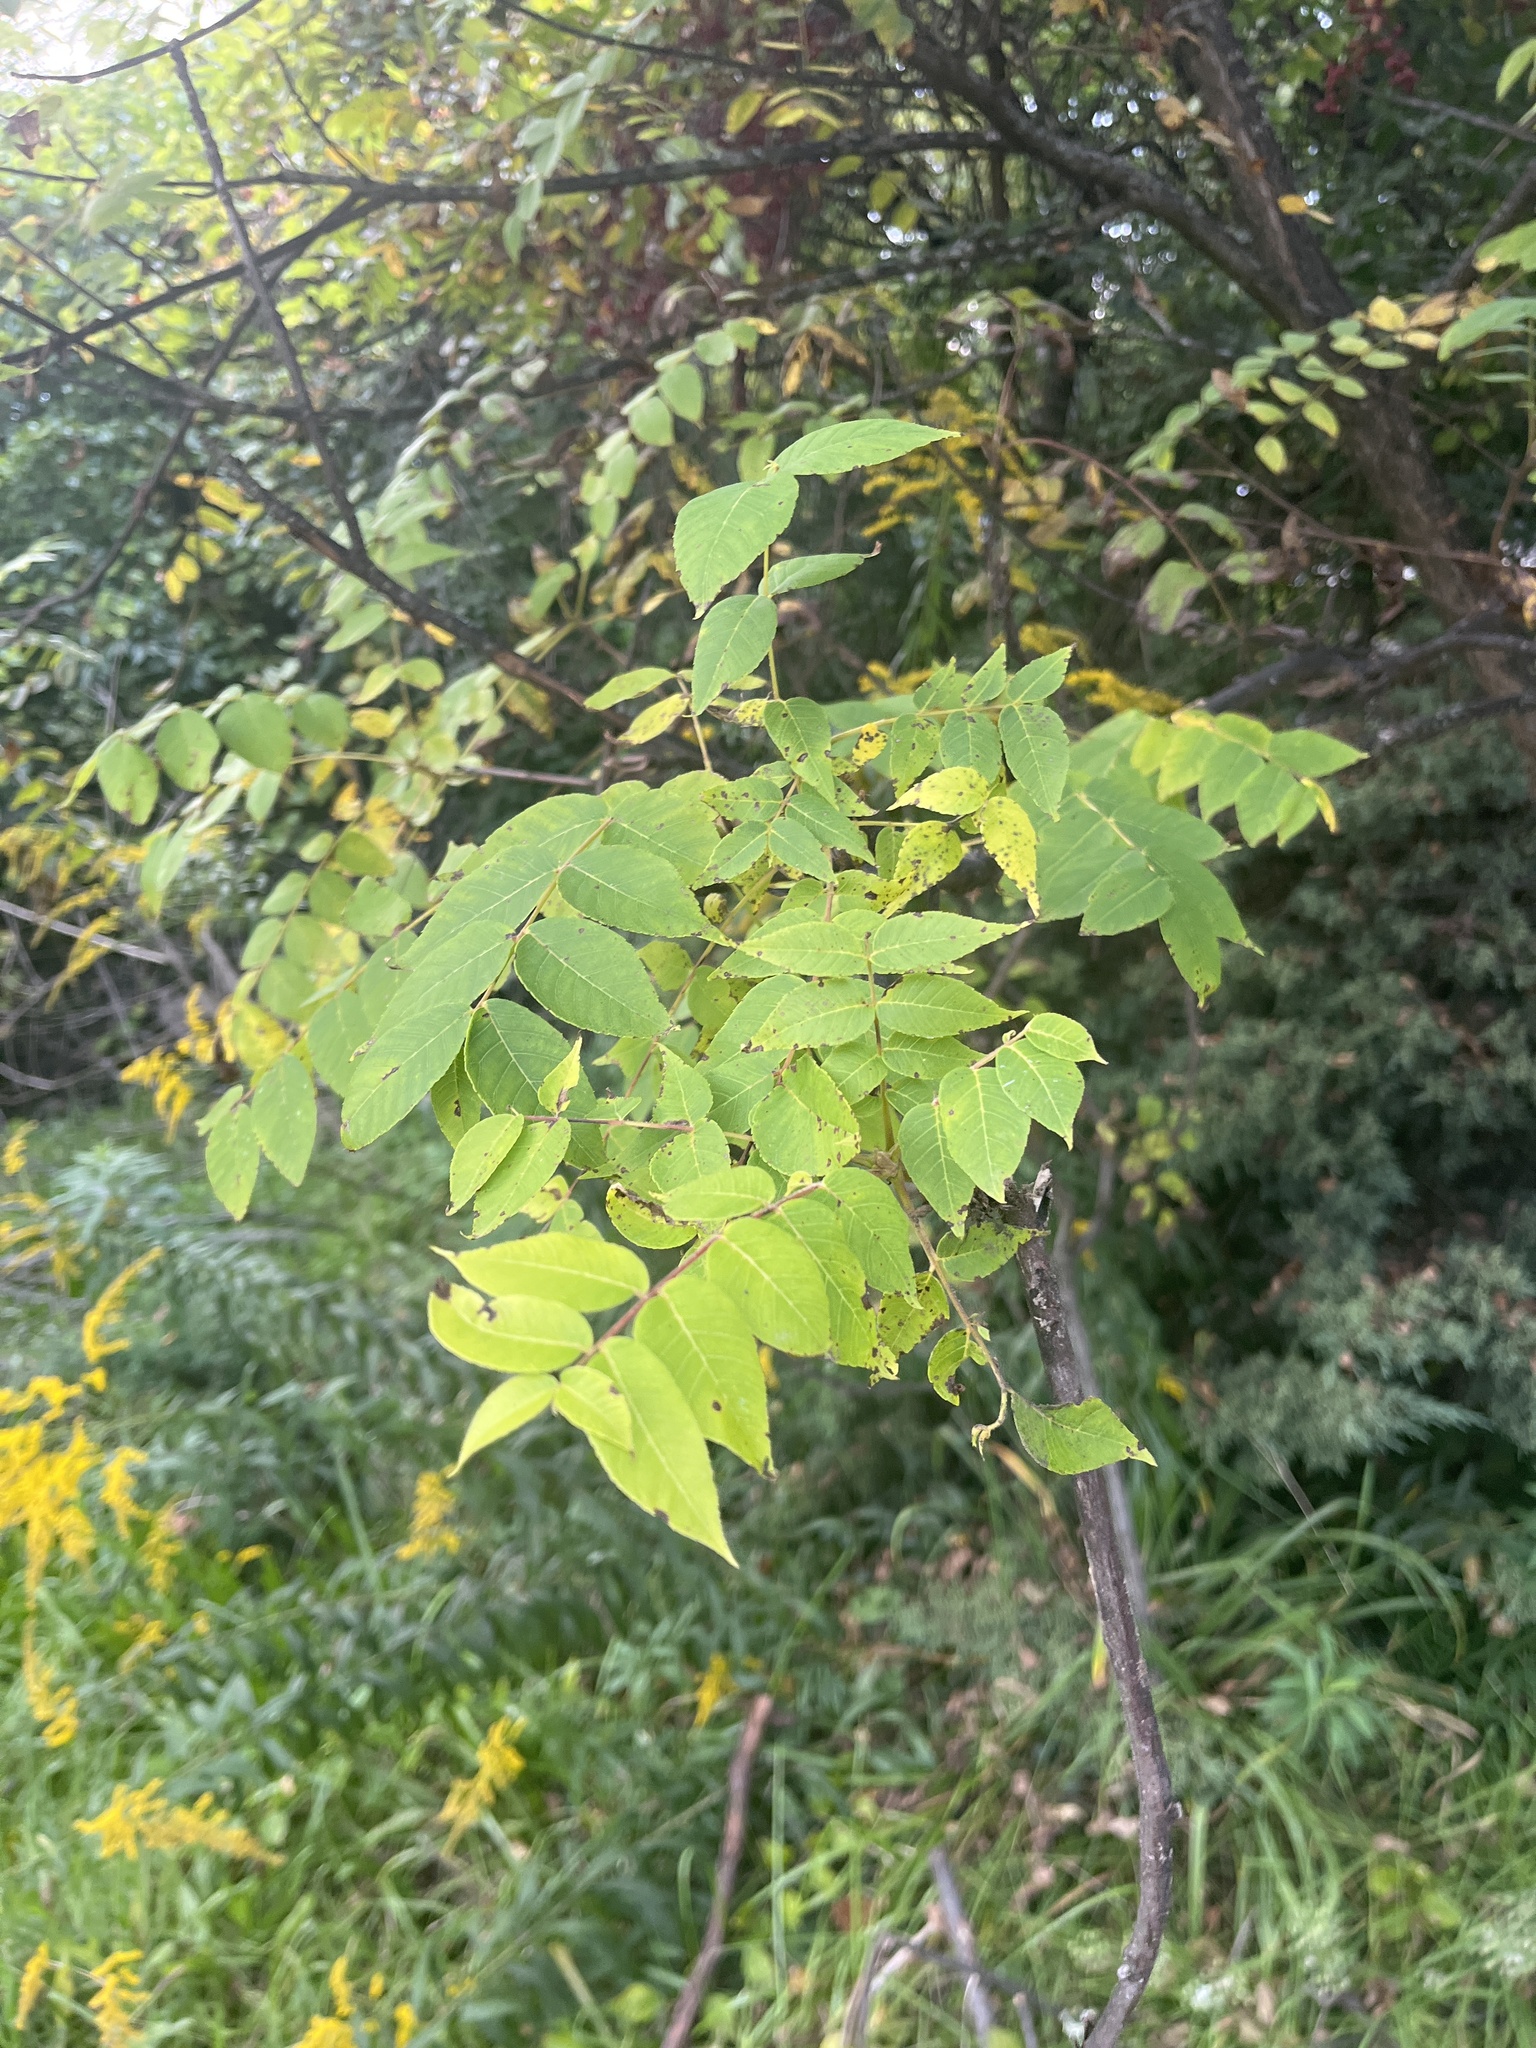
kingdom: Plantae
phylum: Tracheophyta
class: Magnoliopsida
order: Fagales
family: Juglandaceae
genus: Juglans
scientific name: Juglans nigra
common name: Black walnut
